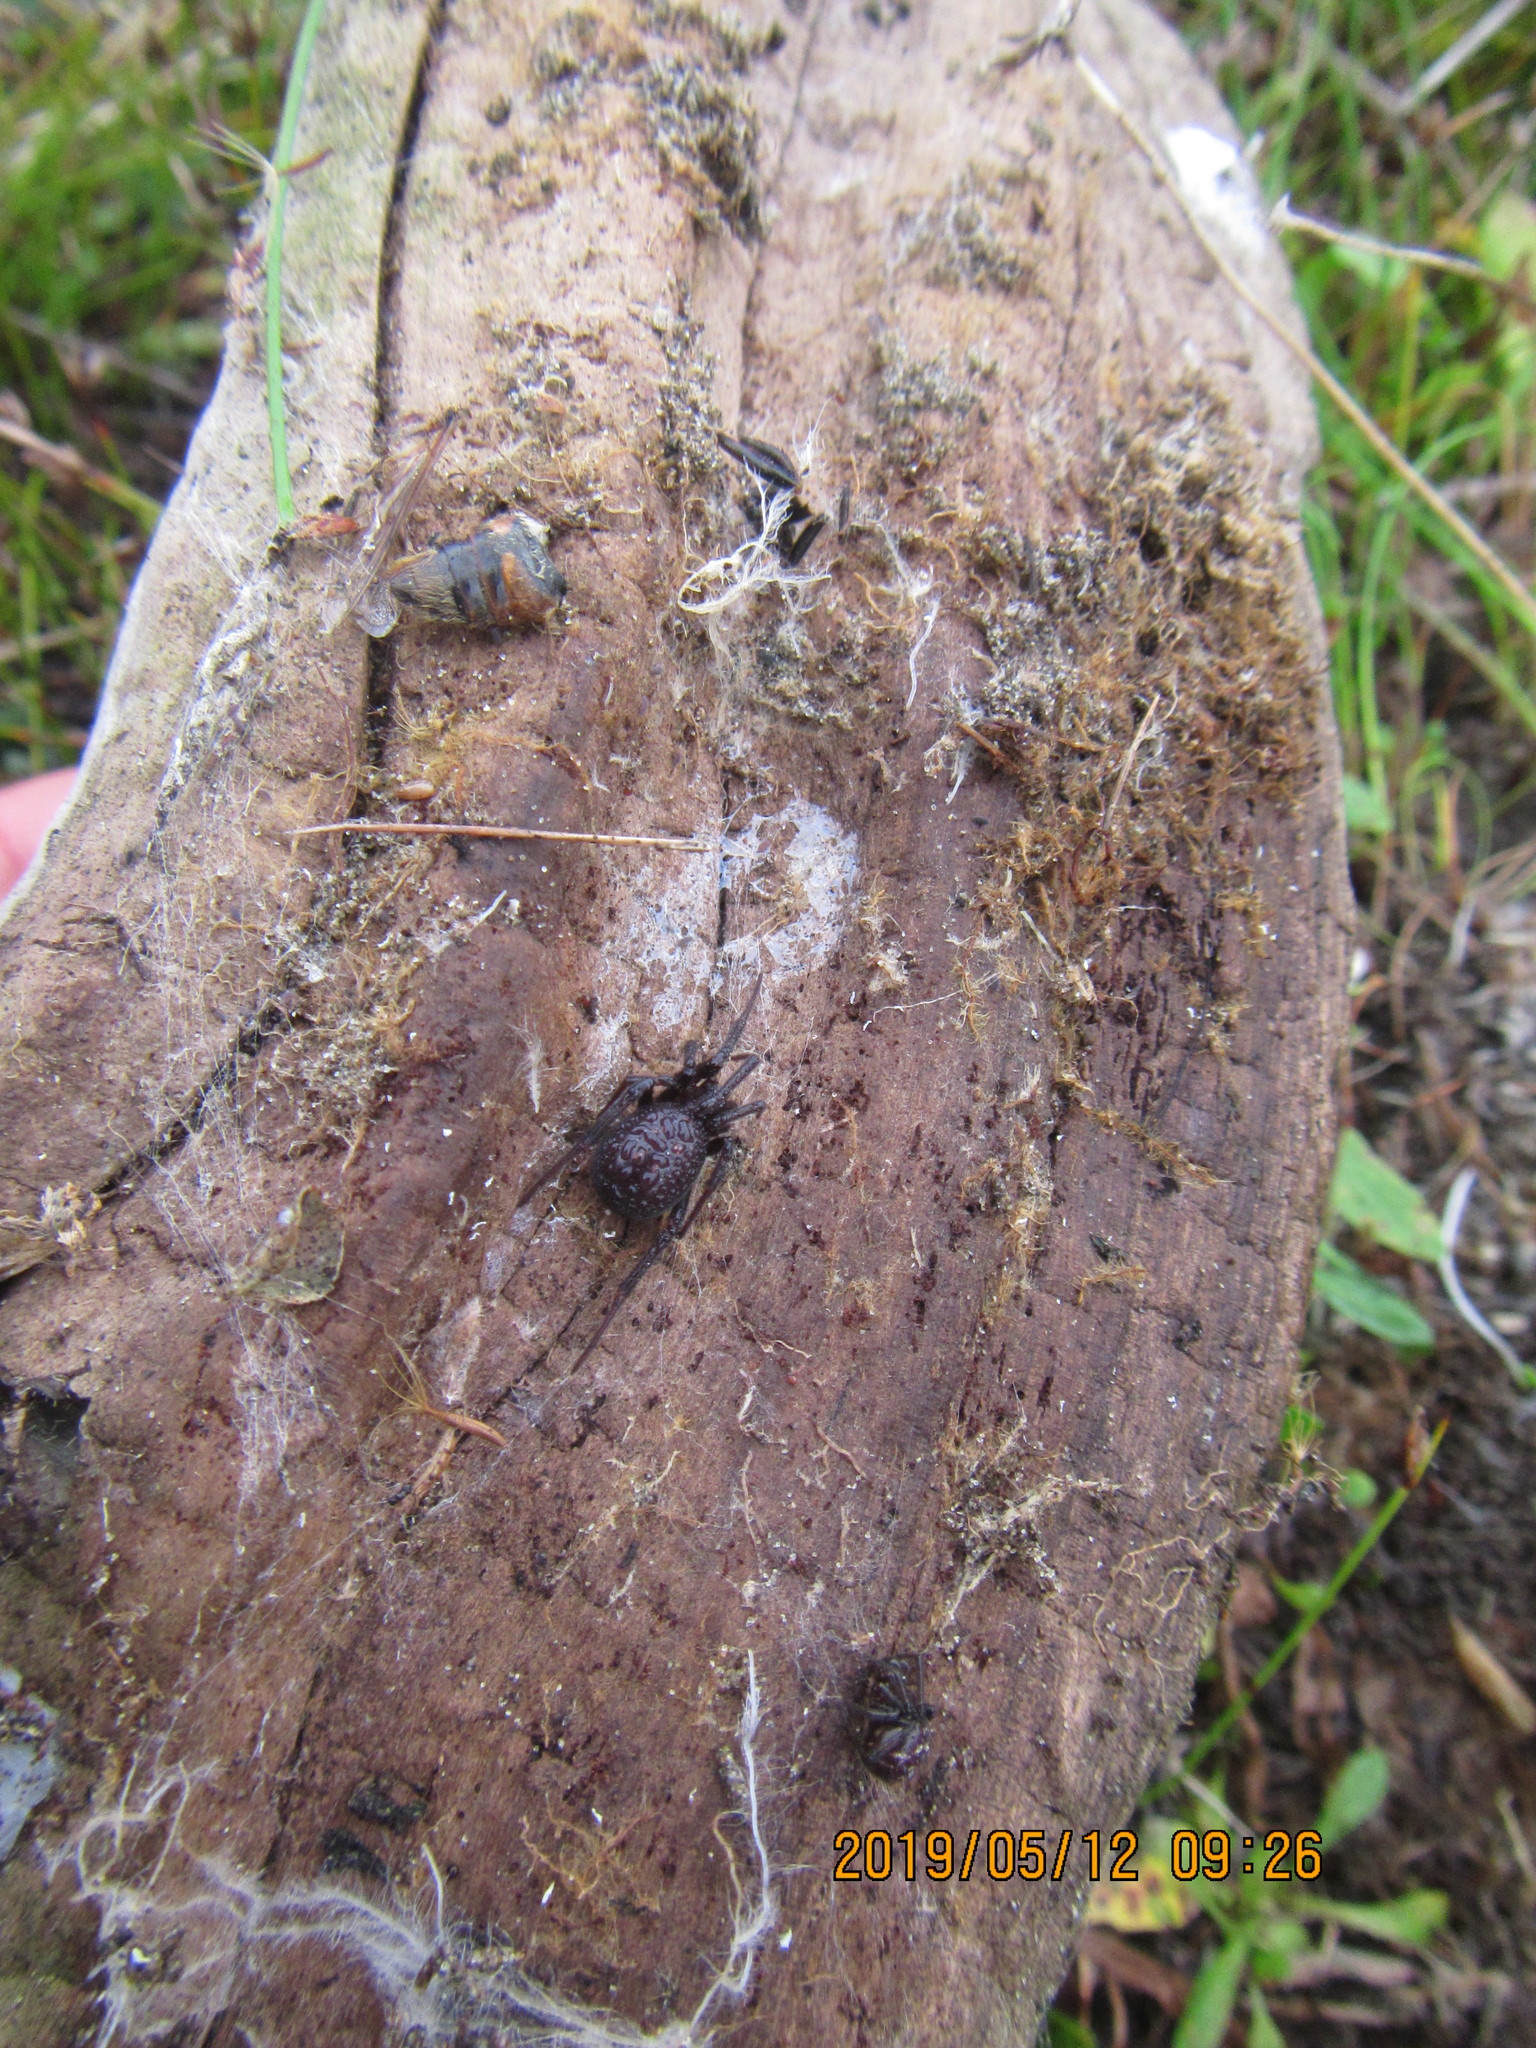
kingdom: Animalia
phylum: Arthropoda
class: Arachnida
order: Araneae
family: Theridiidae
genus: Steatoda
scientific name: Steatoda capensis
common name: Cobweb weaver
